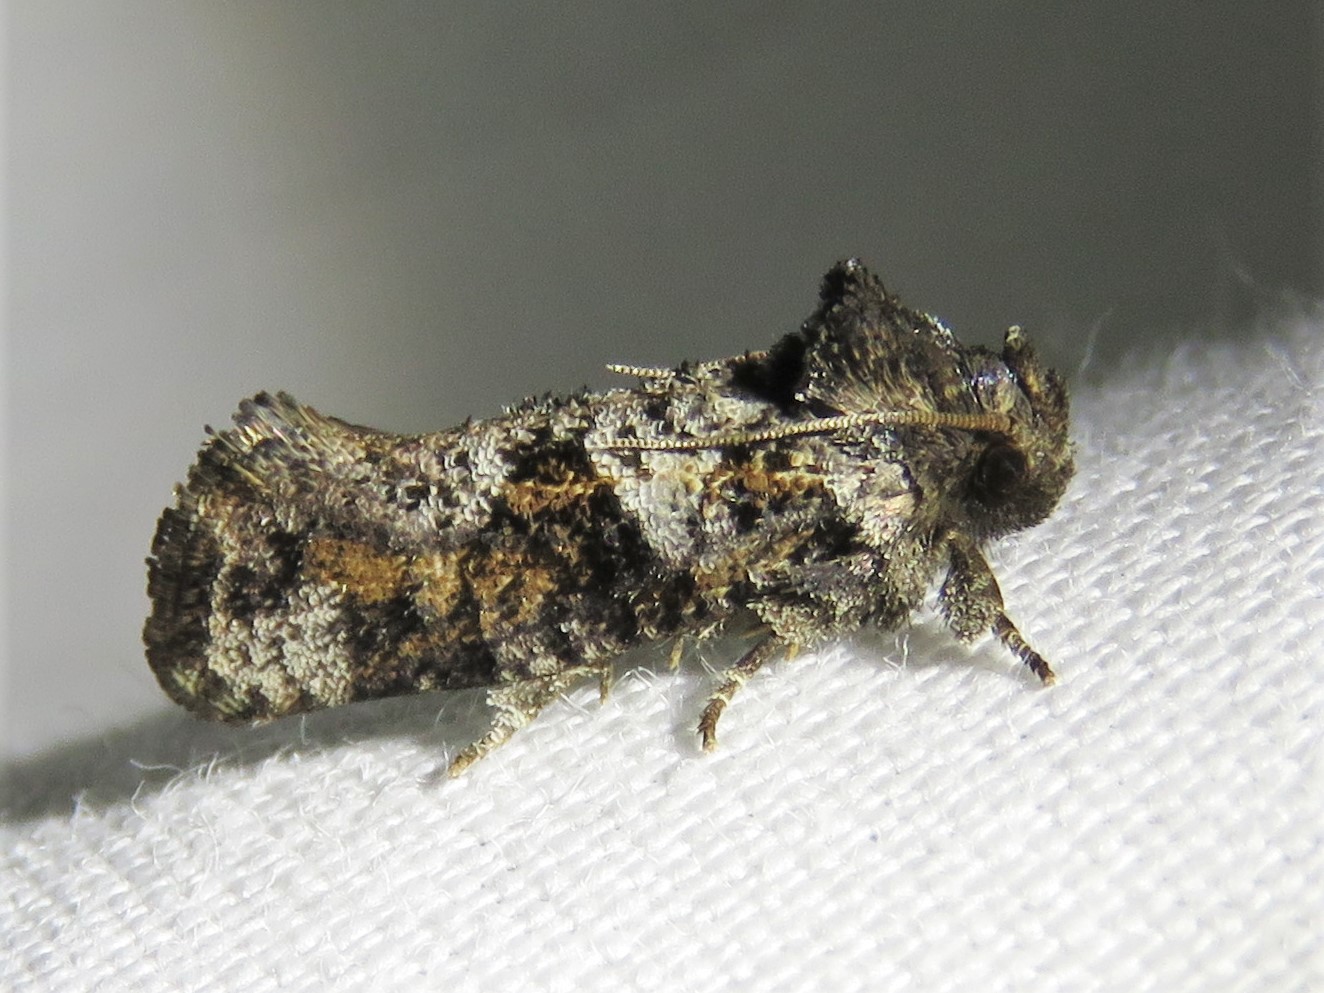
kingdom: Animalia
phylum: Arthropoda
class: Insecta
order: Lepidoptera
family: Tineidae
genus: Acrolophus
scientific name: Acrolophus piger
